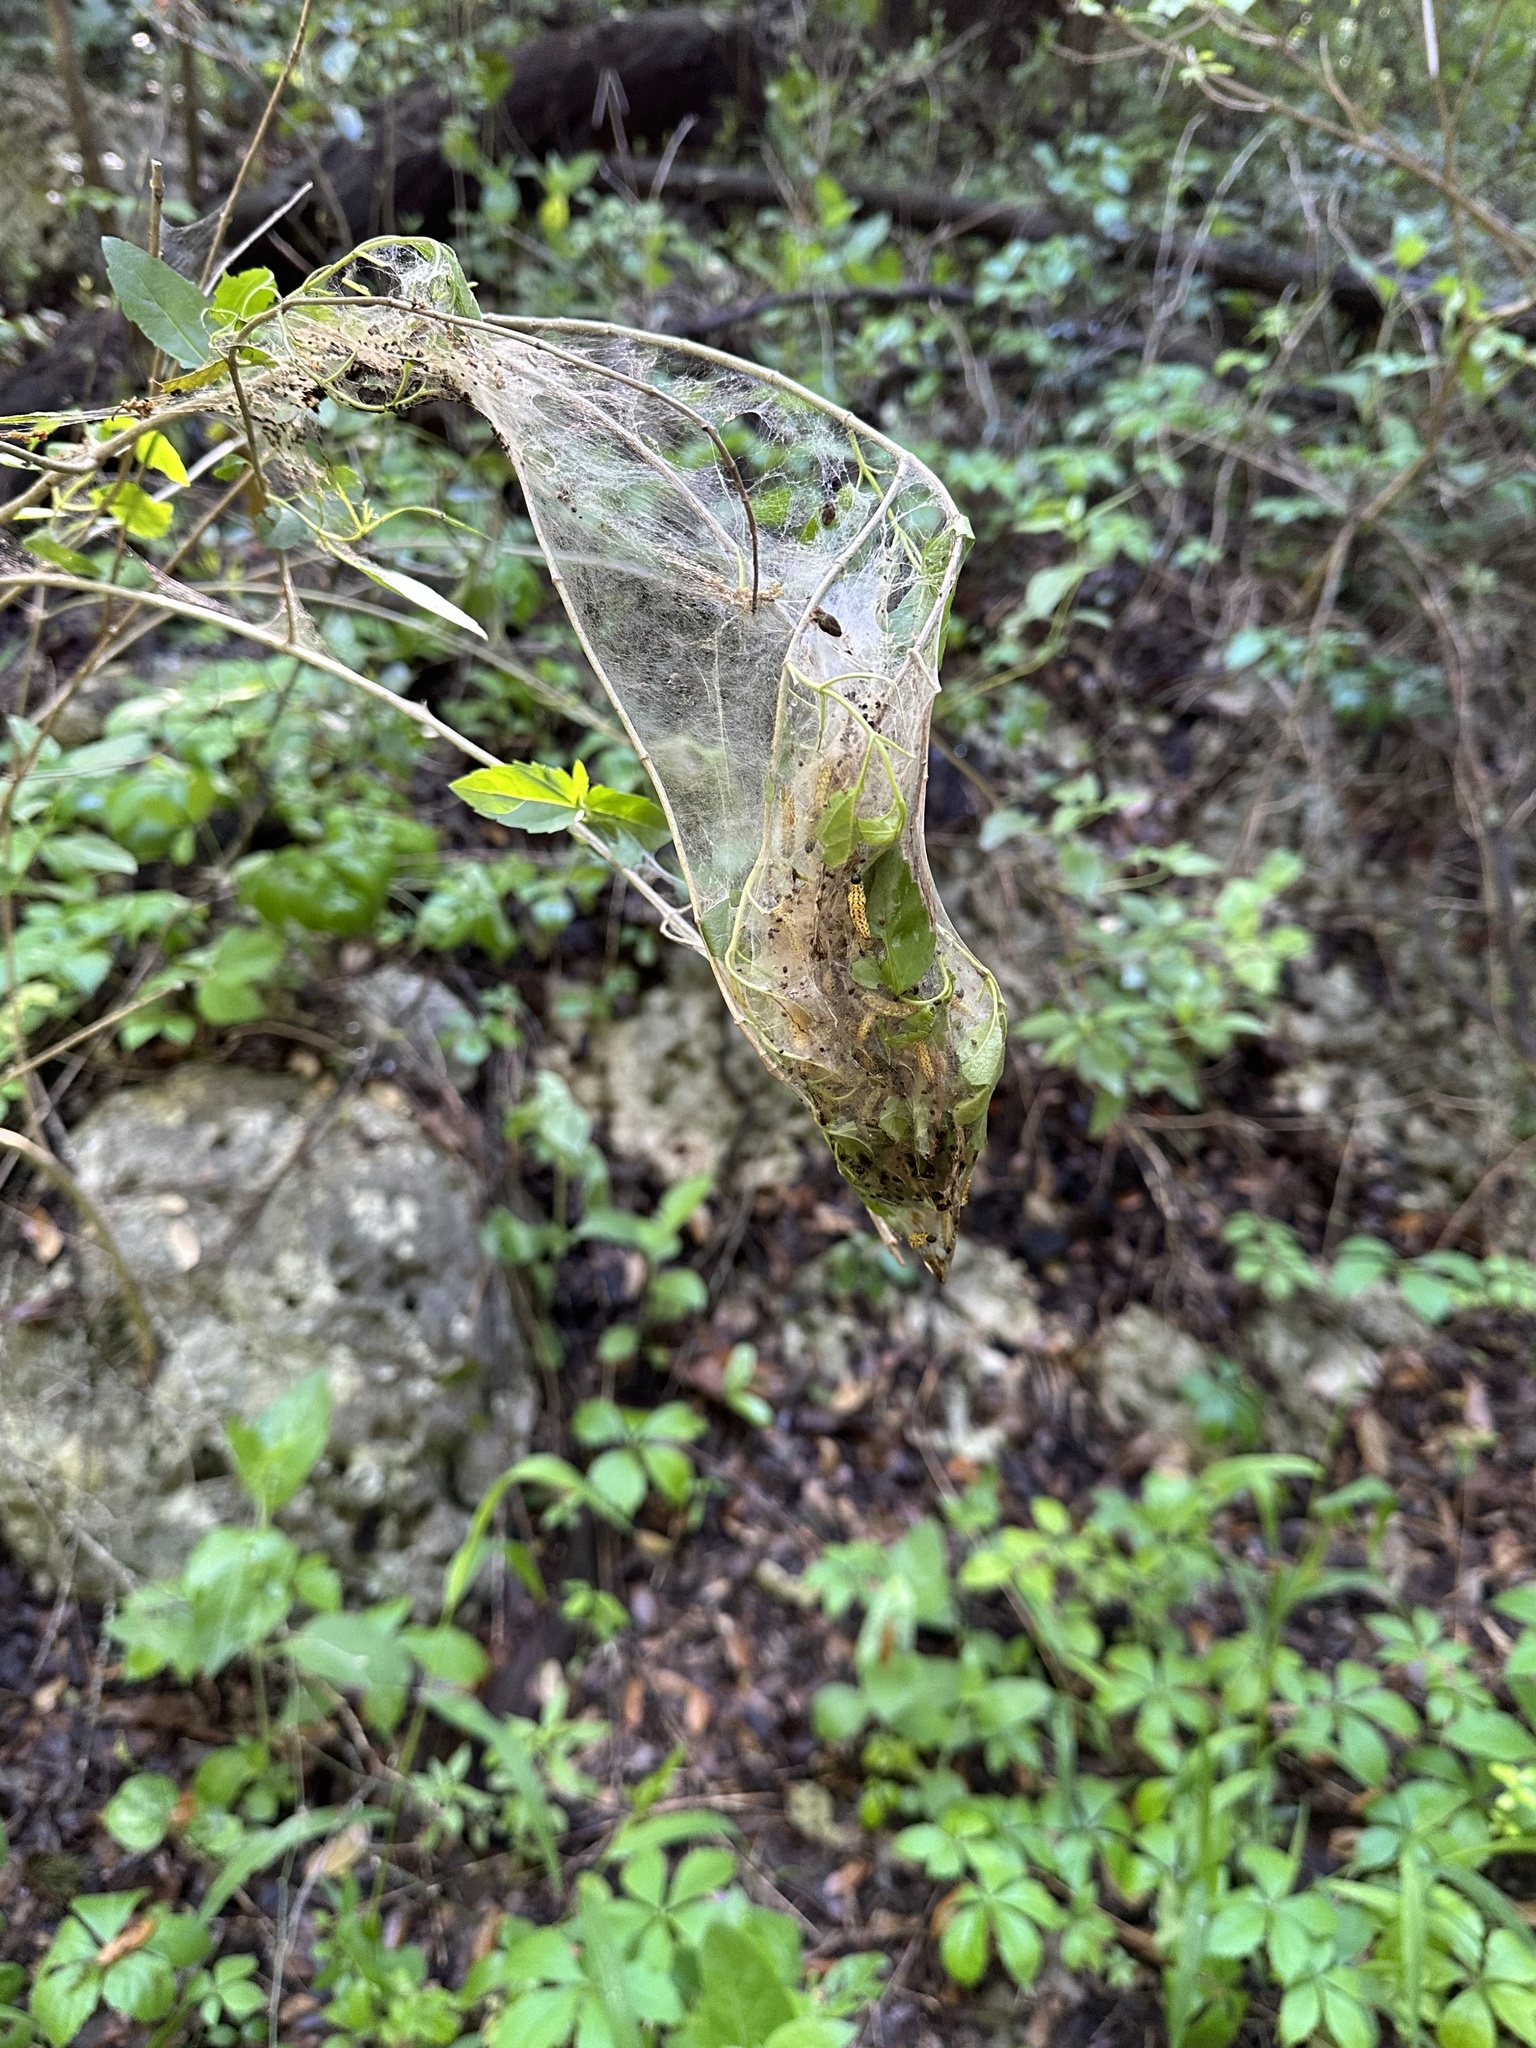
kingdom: Animalia
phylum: Arthropoda
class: Insecta
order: Lepidoptera
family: Tortricidae
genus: Archips
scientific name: Archips rileyana
